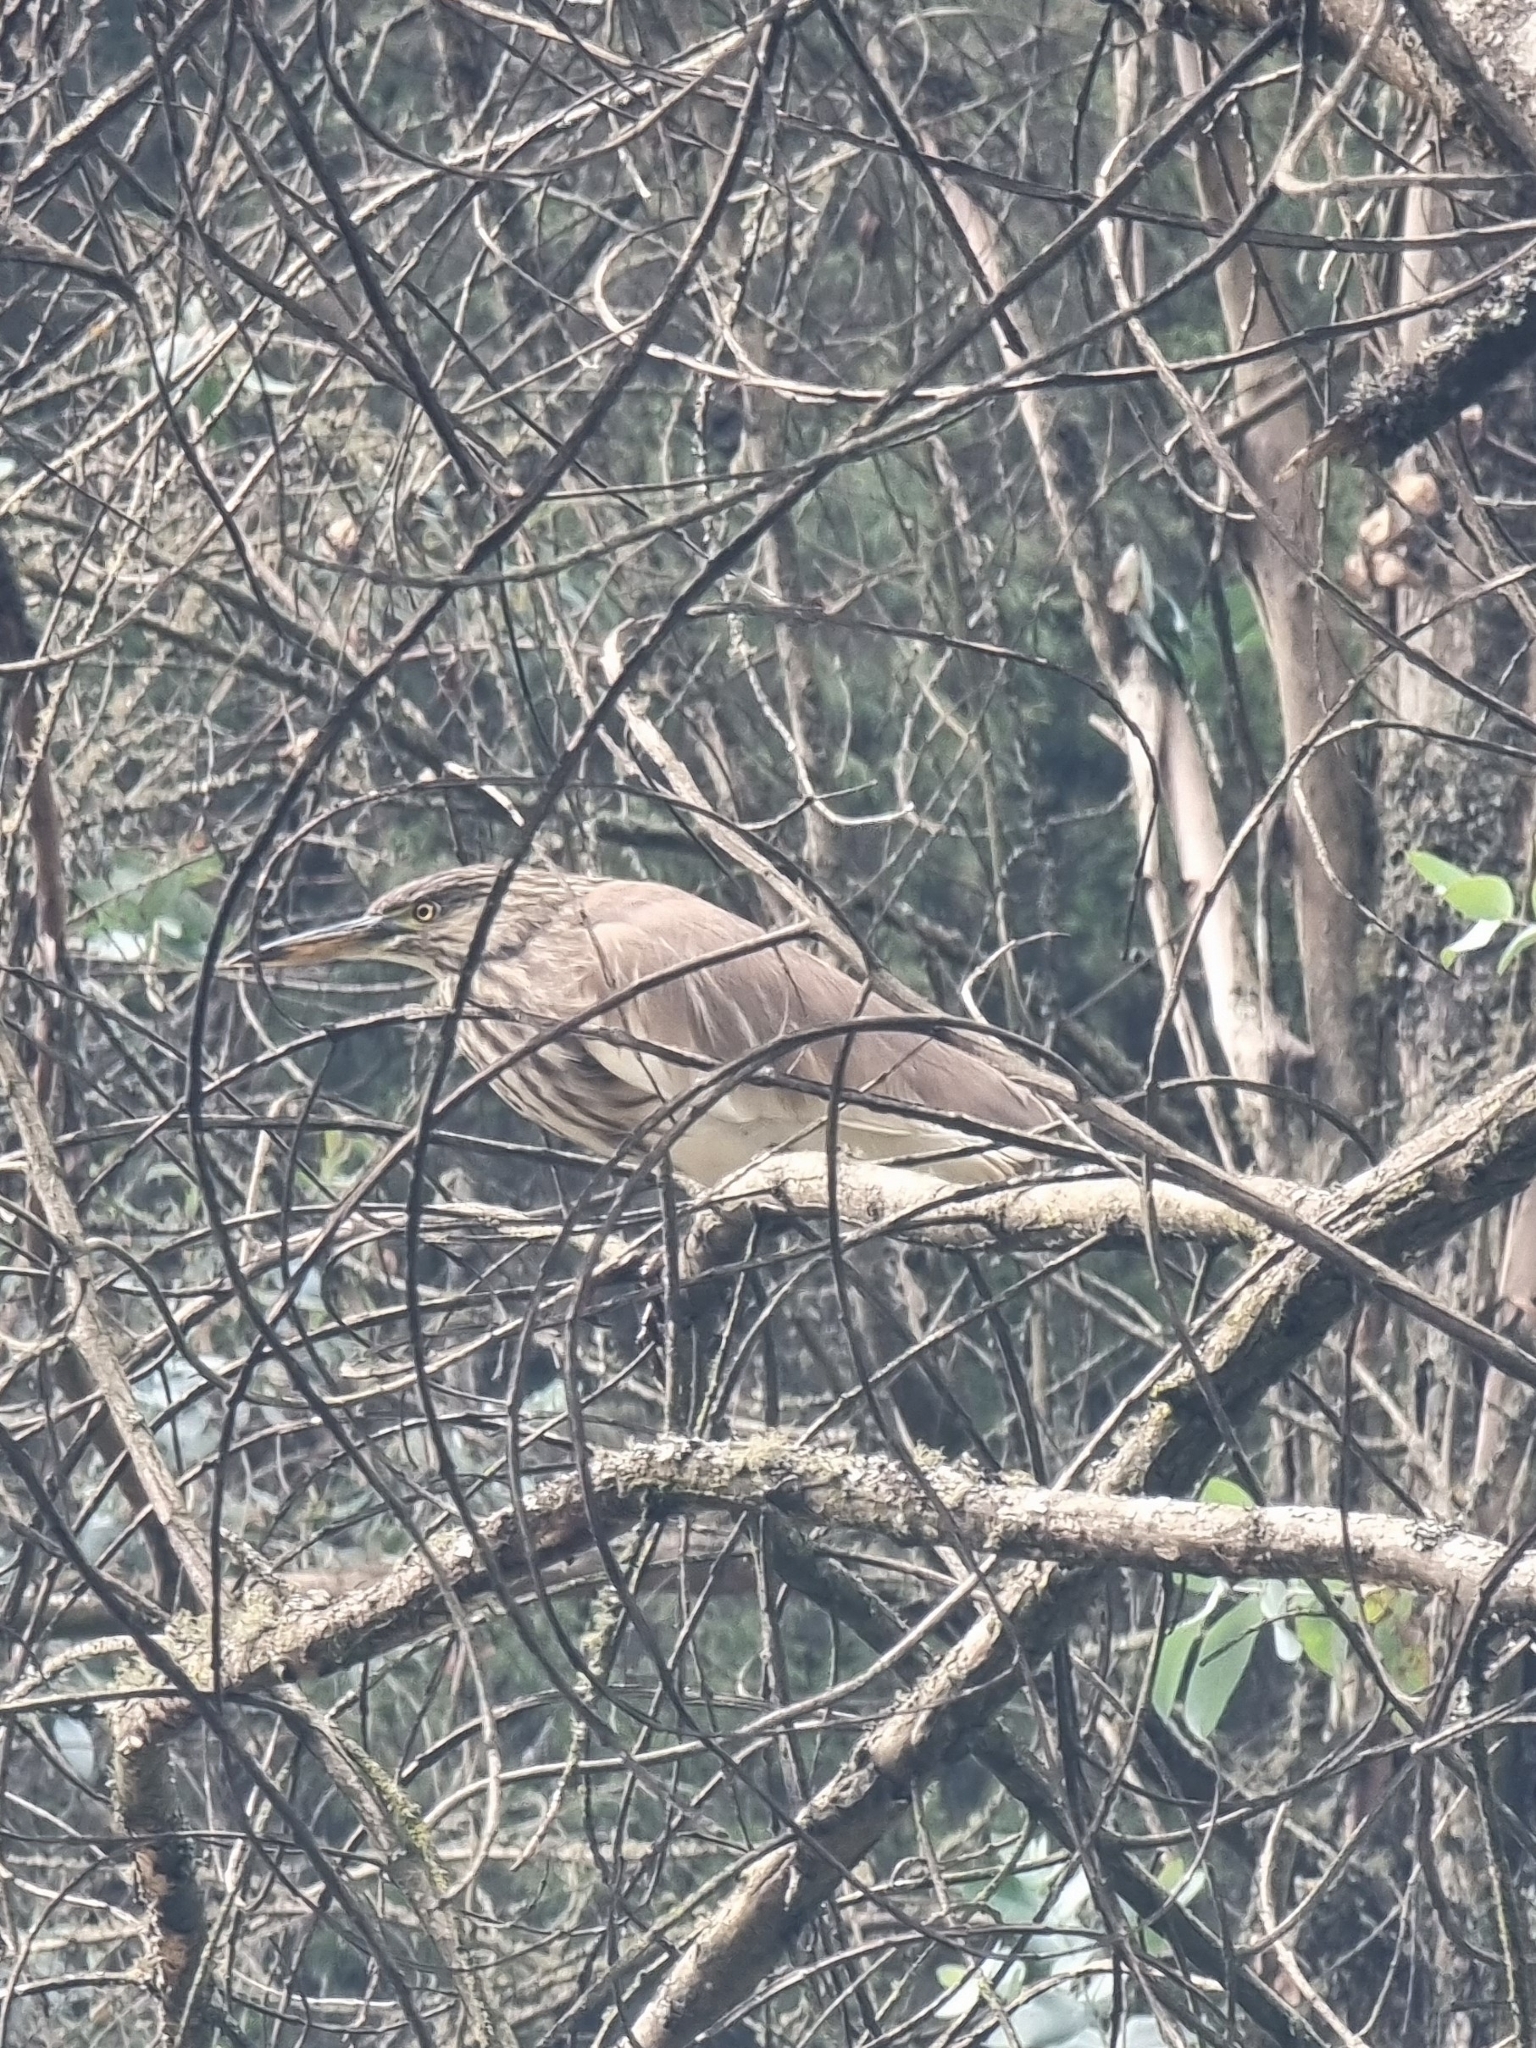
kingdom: Animalia
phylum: Chordata
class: Aves
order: Pelecaniformes
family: Ardeidae
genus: Ardeola
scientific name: Ardeola grayii
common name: Indian pond heron
